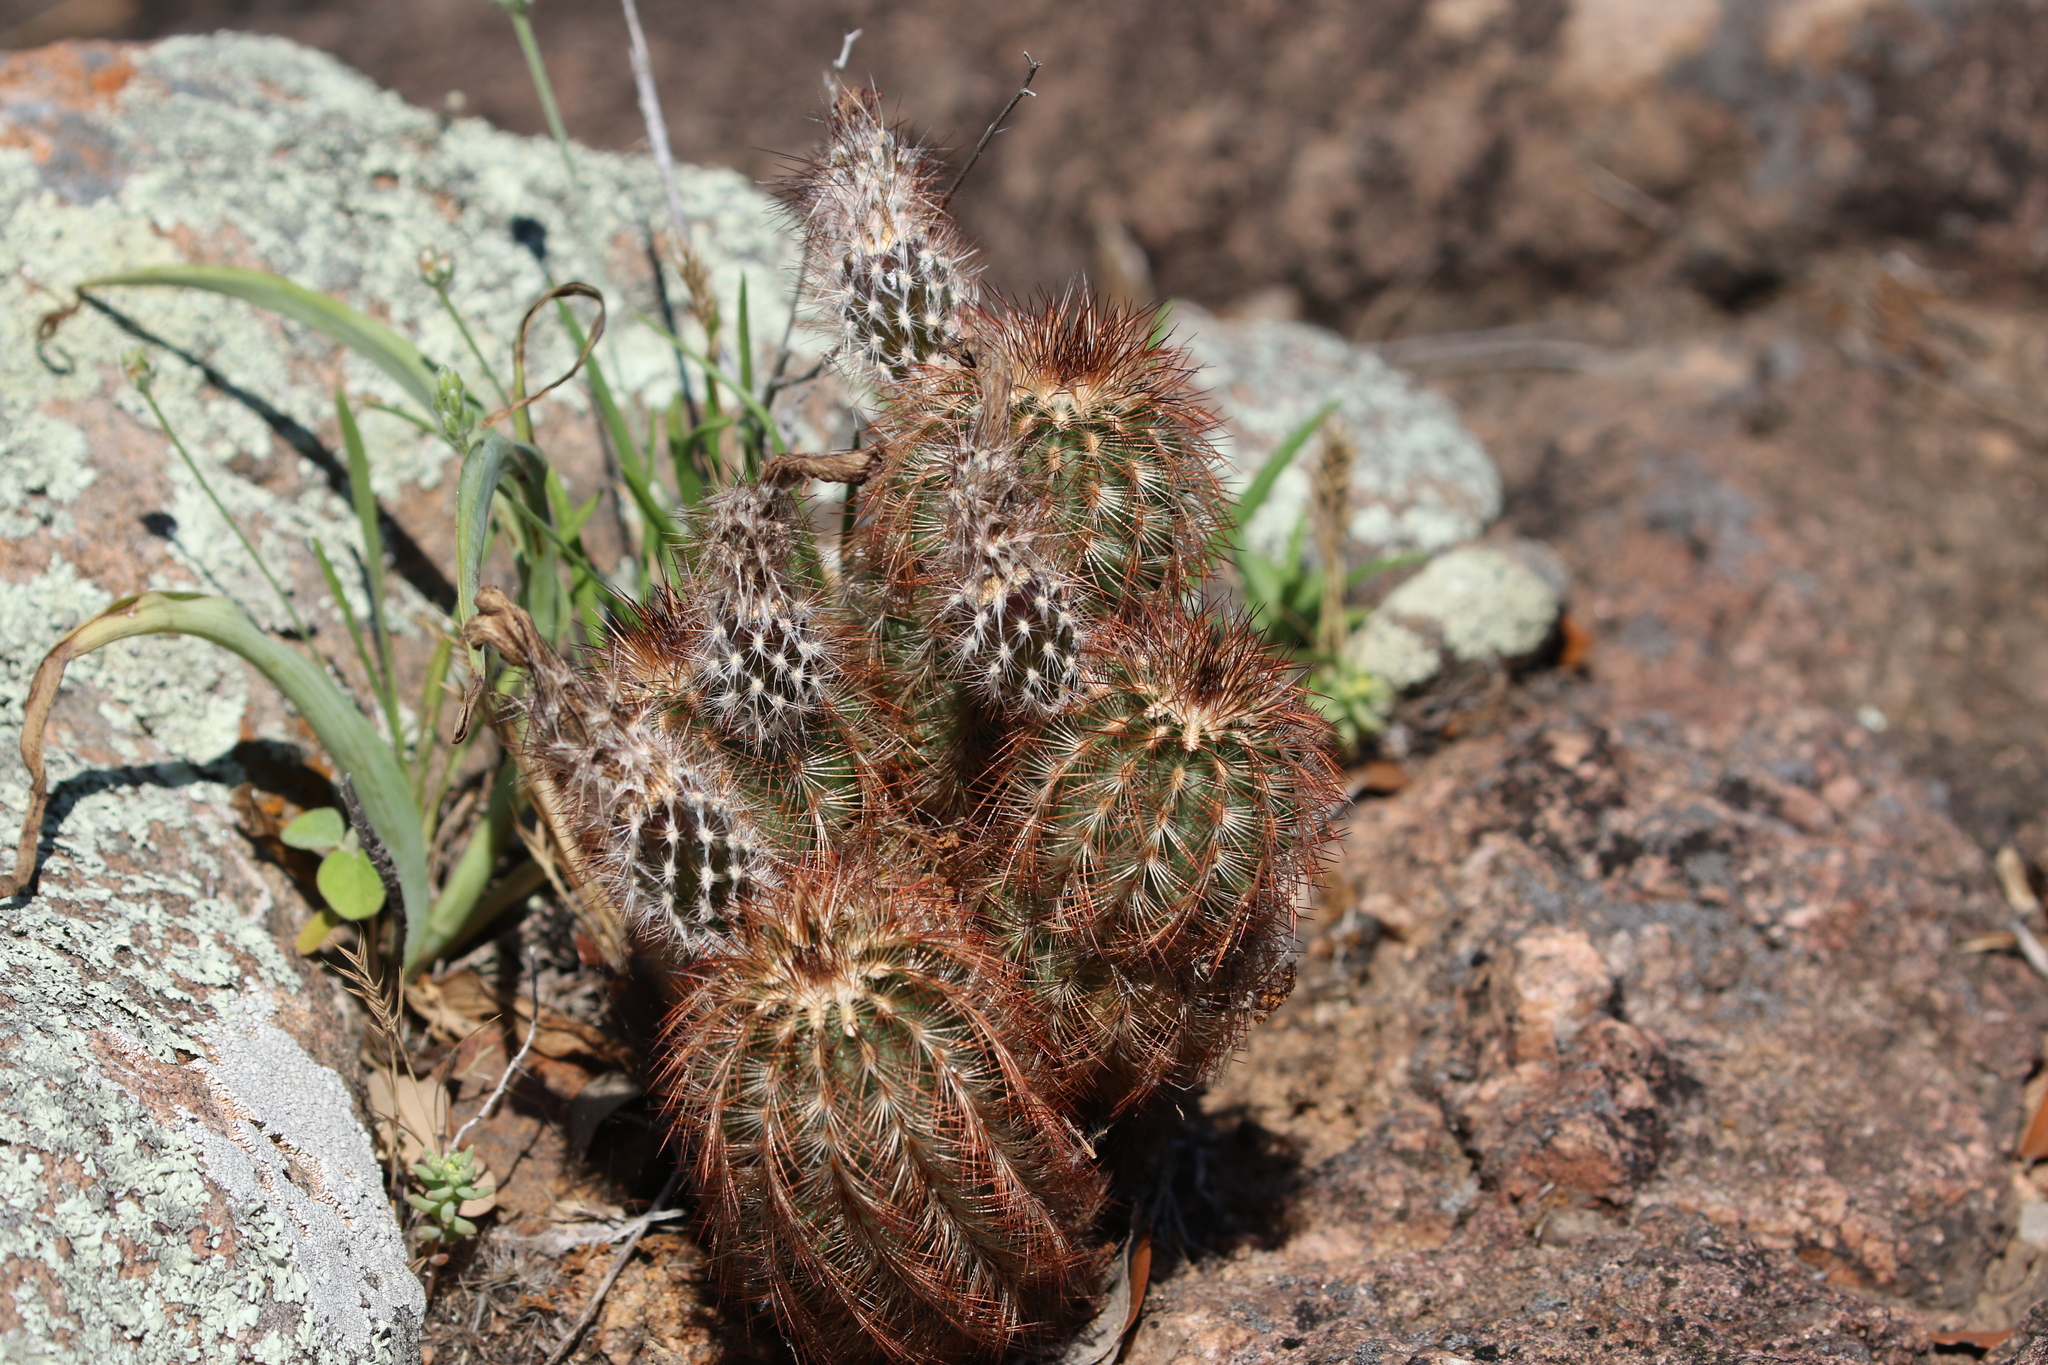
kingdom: Plantae
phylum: Tracheophyta
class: Magnoliopsida
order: Caryophyllales
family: Cactaceae
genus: Echinocereus
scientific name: Echinocereus reichenbachii
